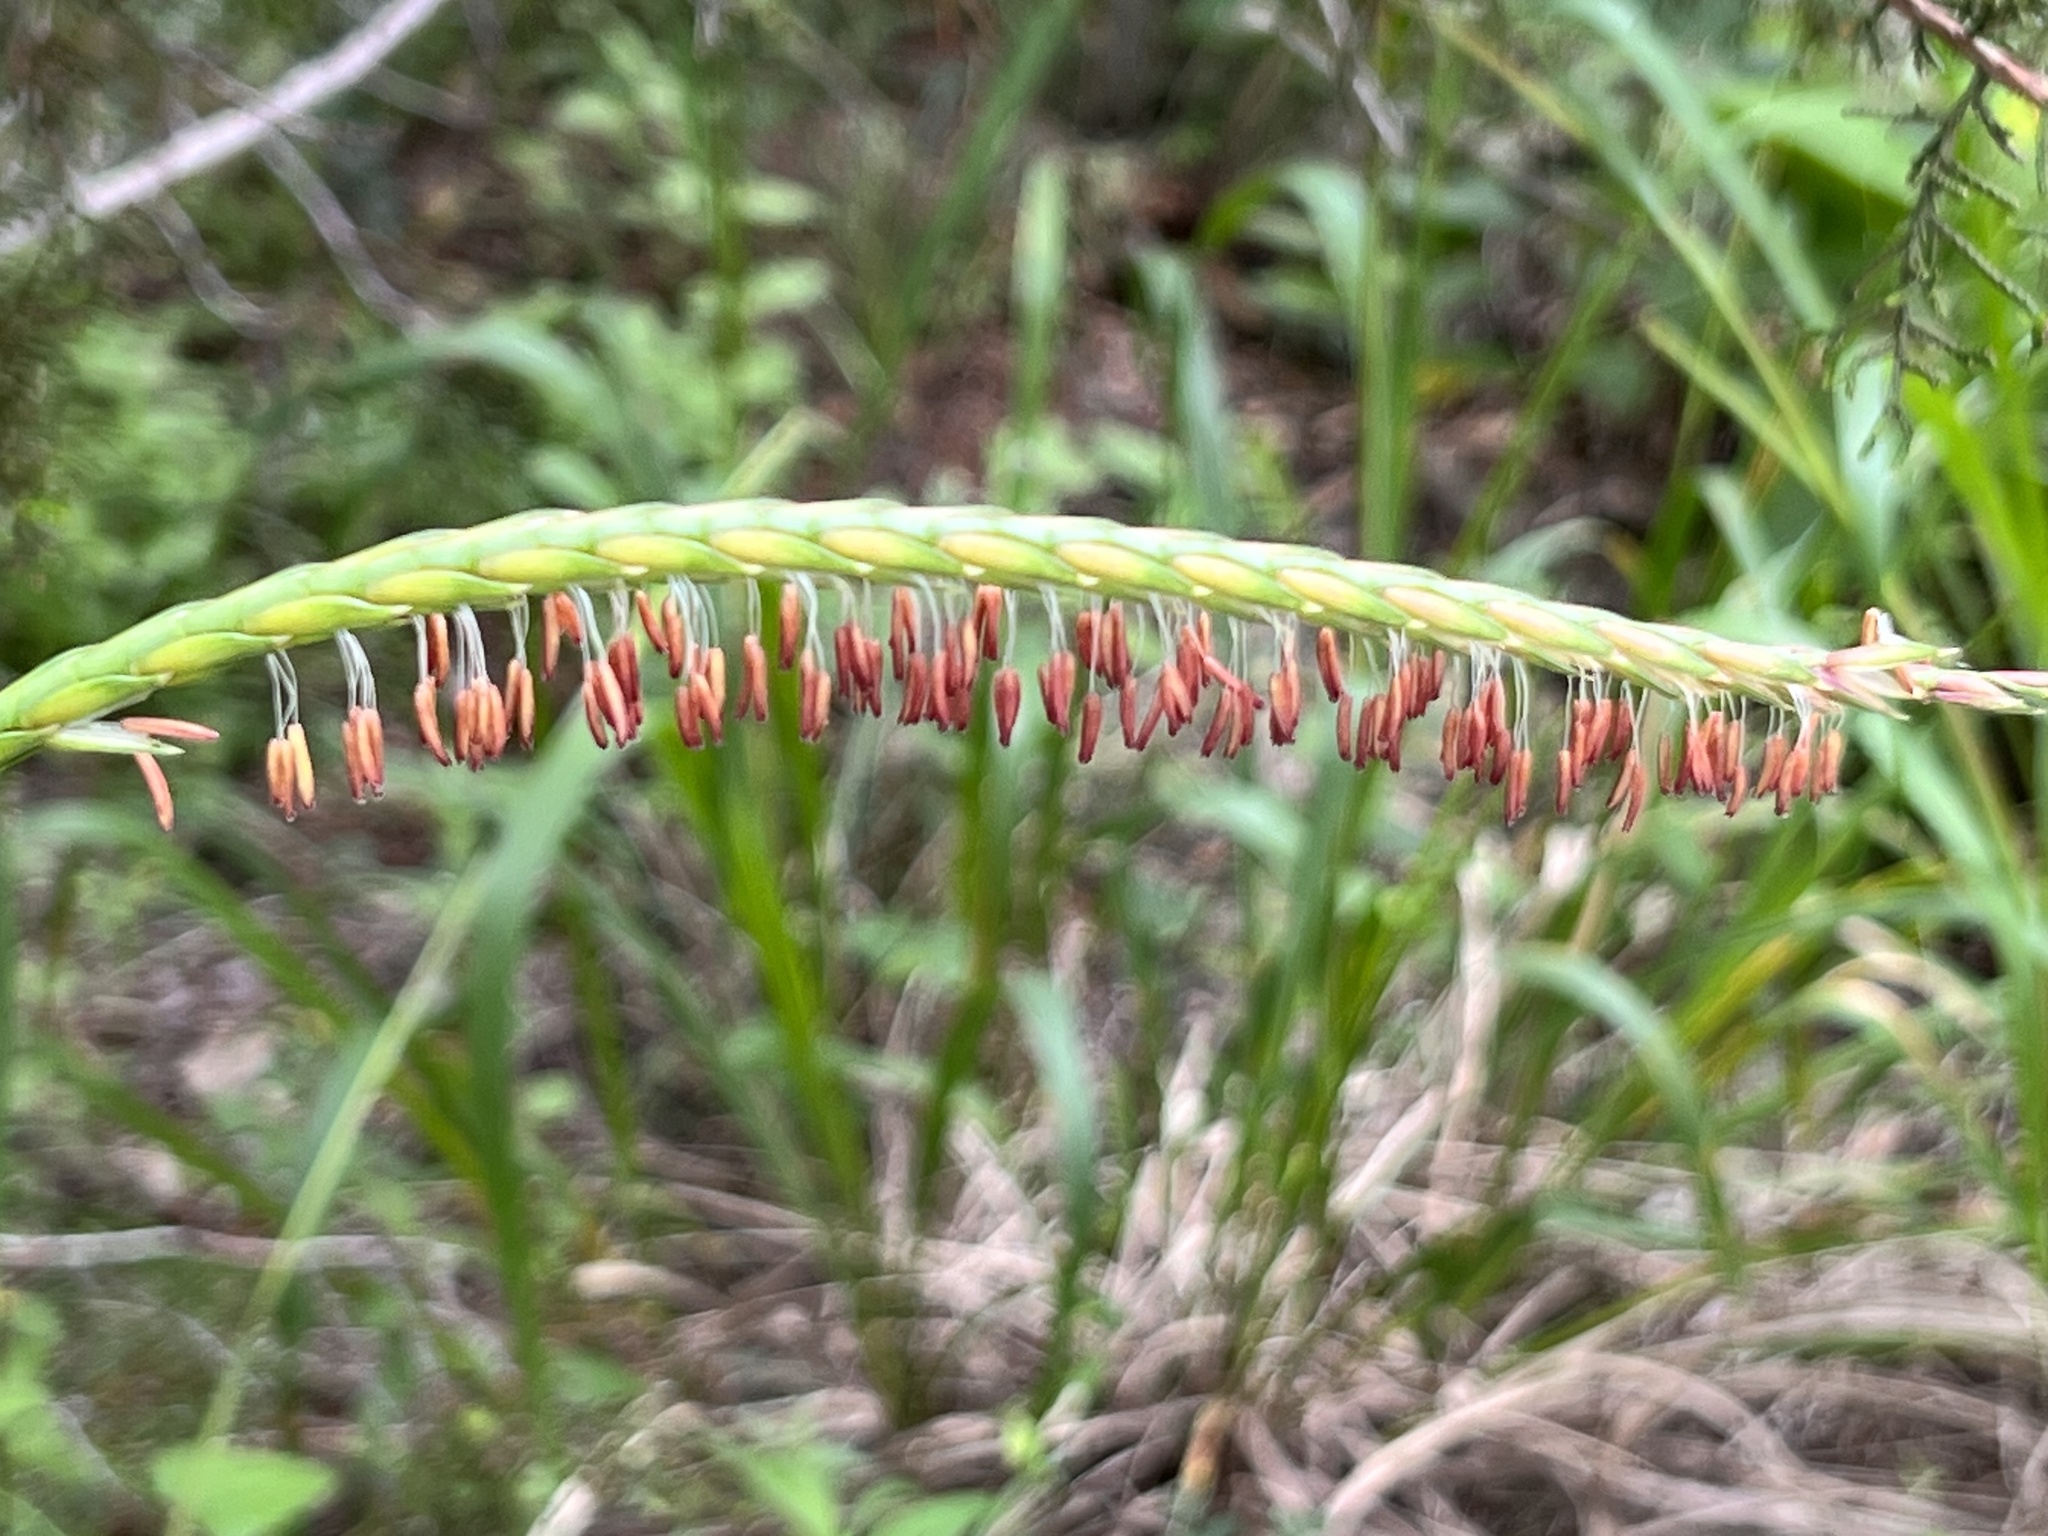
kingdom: Plantae
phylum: Tracheophyta
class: Liliopsida
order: Poales
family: Poaceae
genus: Tripsacum
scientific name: Tripsacum dactyloides
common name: Buffalo-grass
